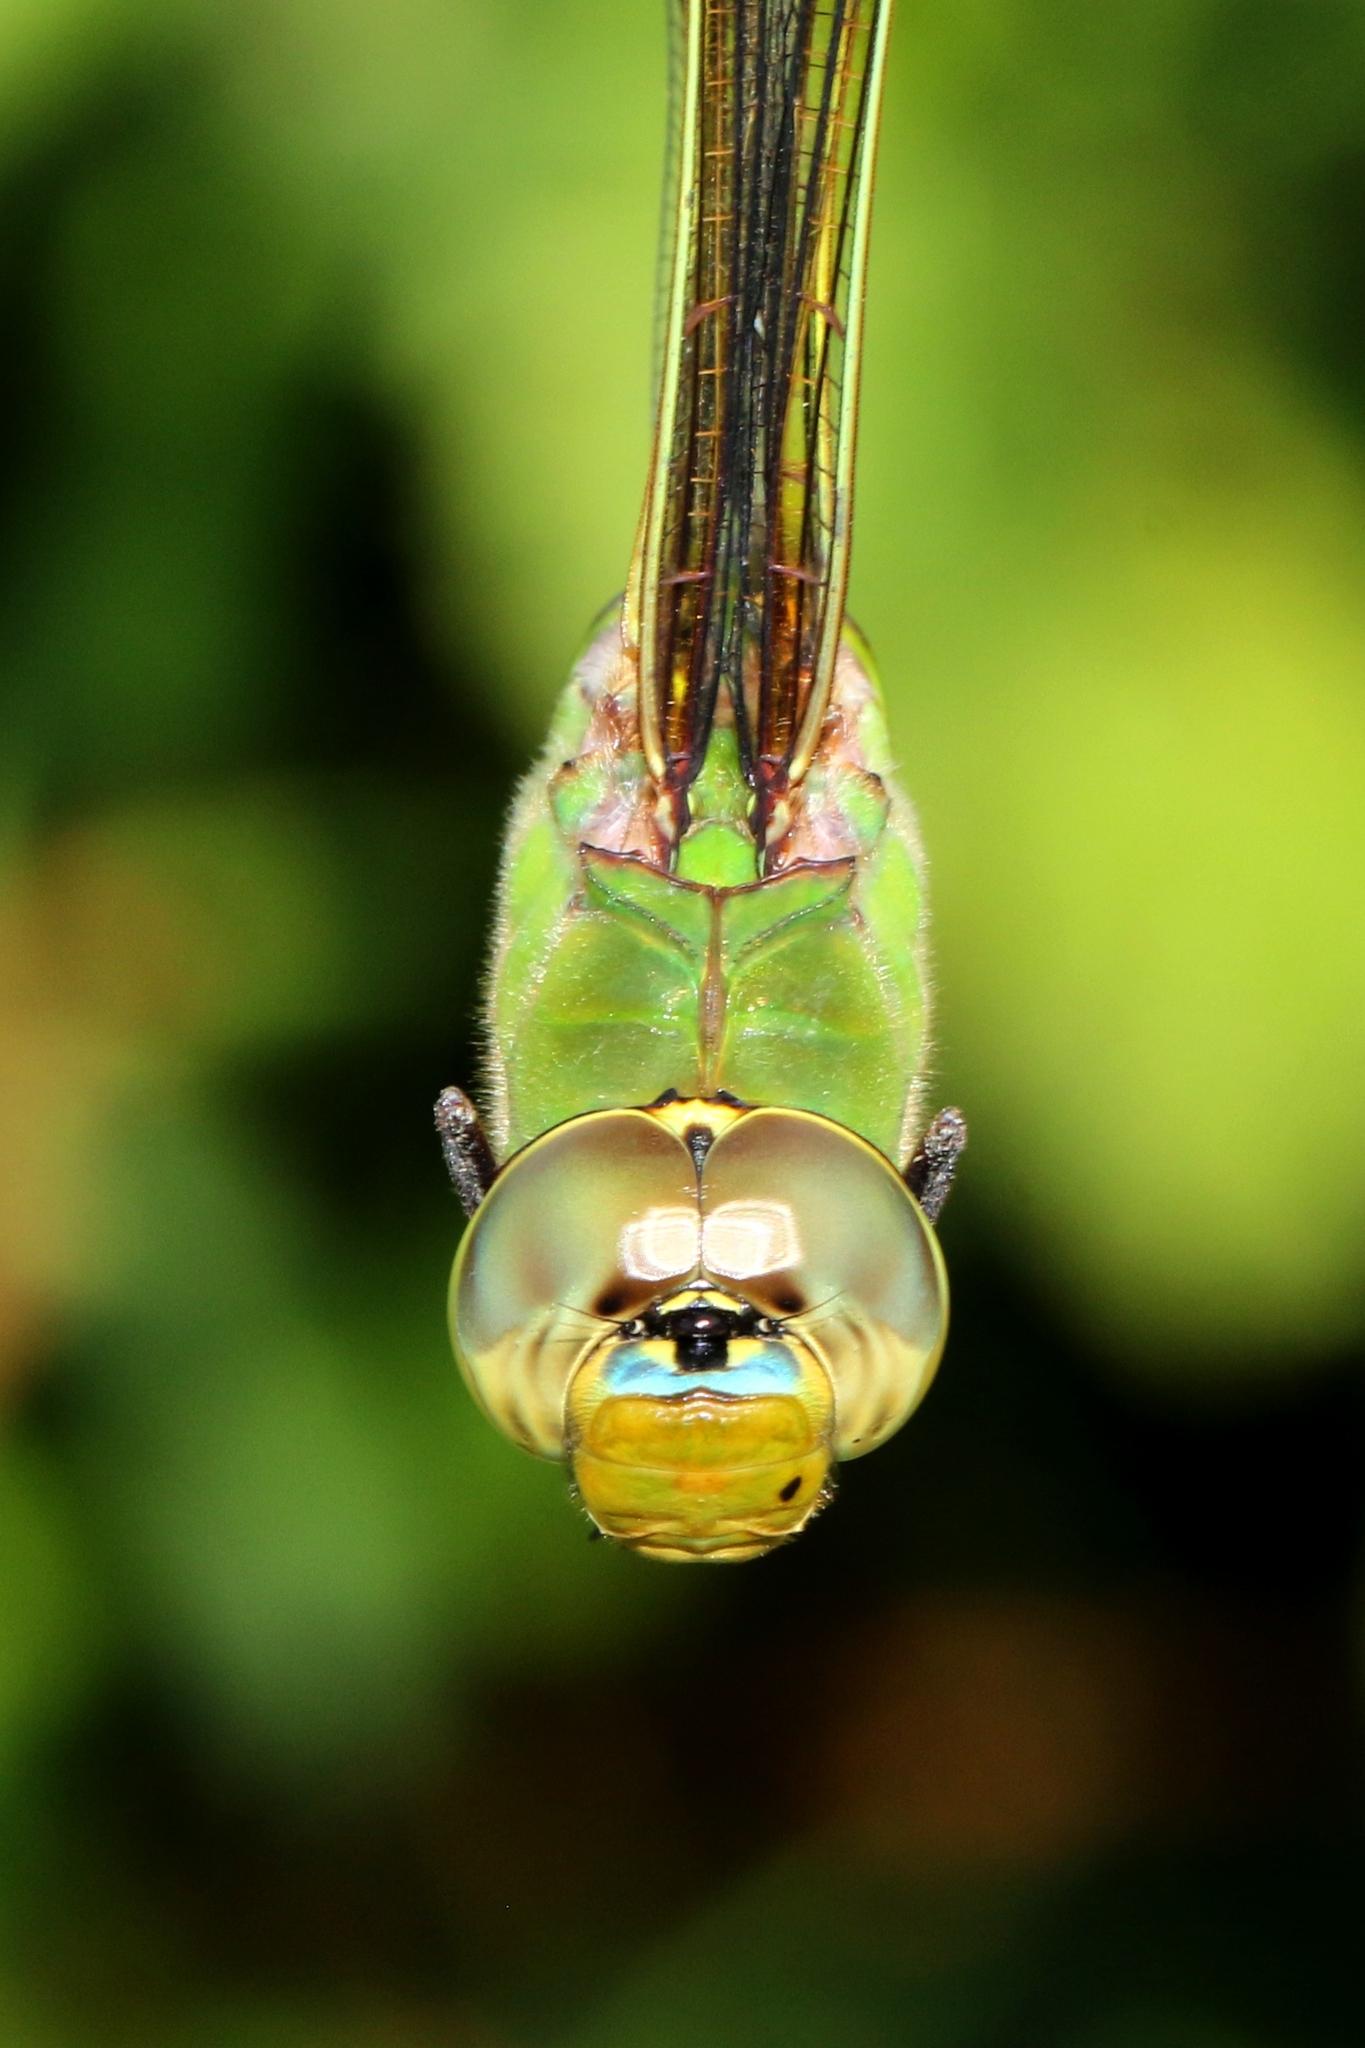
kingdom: Animalia
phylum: Arthropoda
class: Insecta
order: Odonata
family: Aeshnidae
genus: Anax
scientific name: Anax junius
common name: Common green darner
